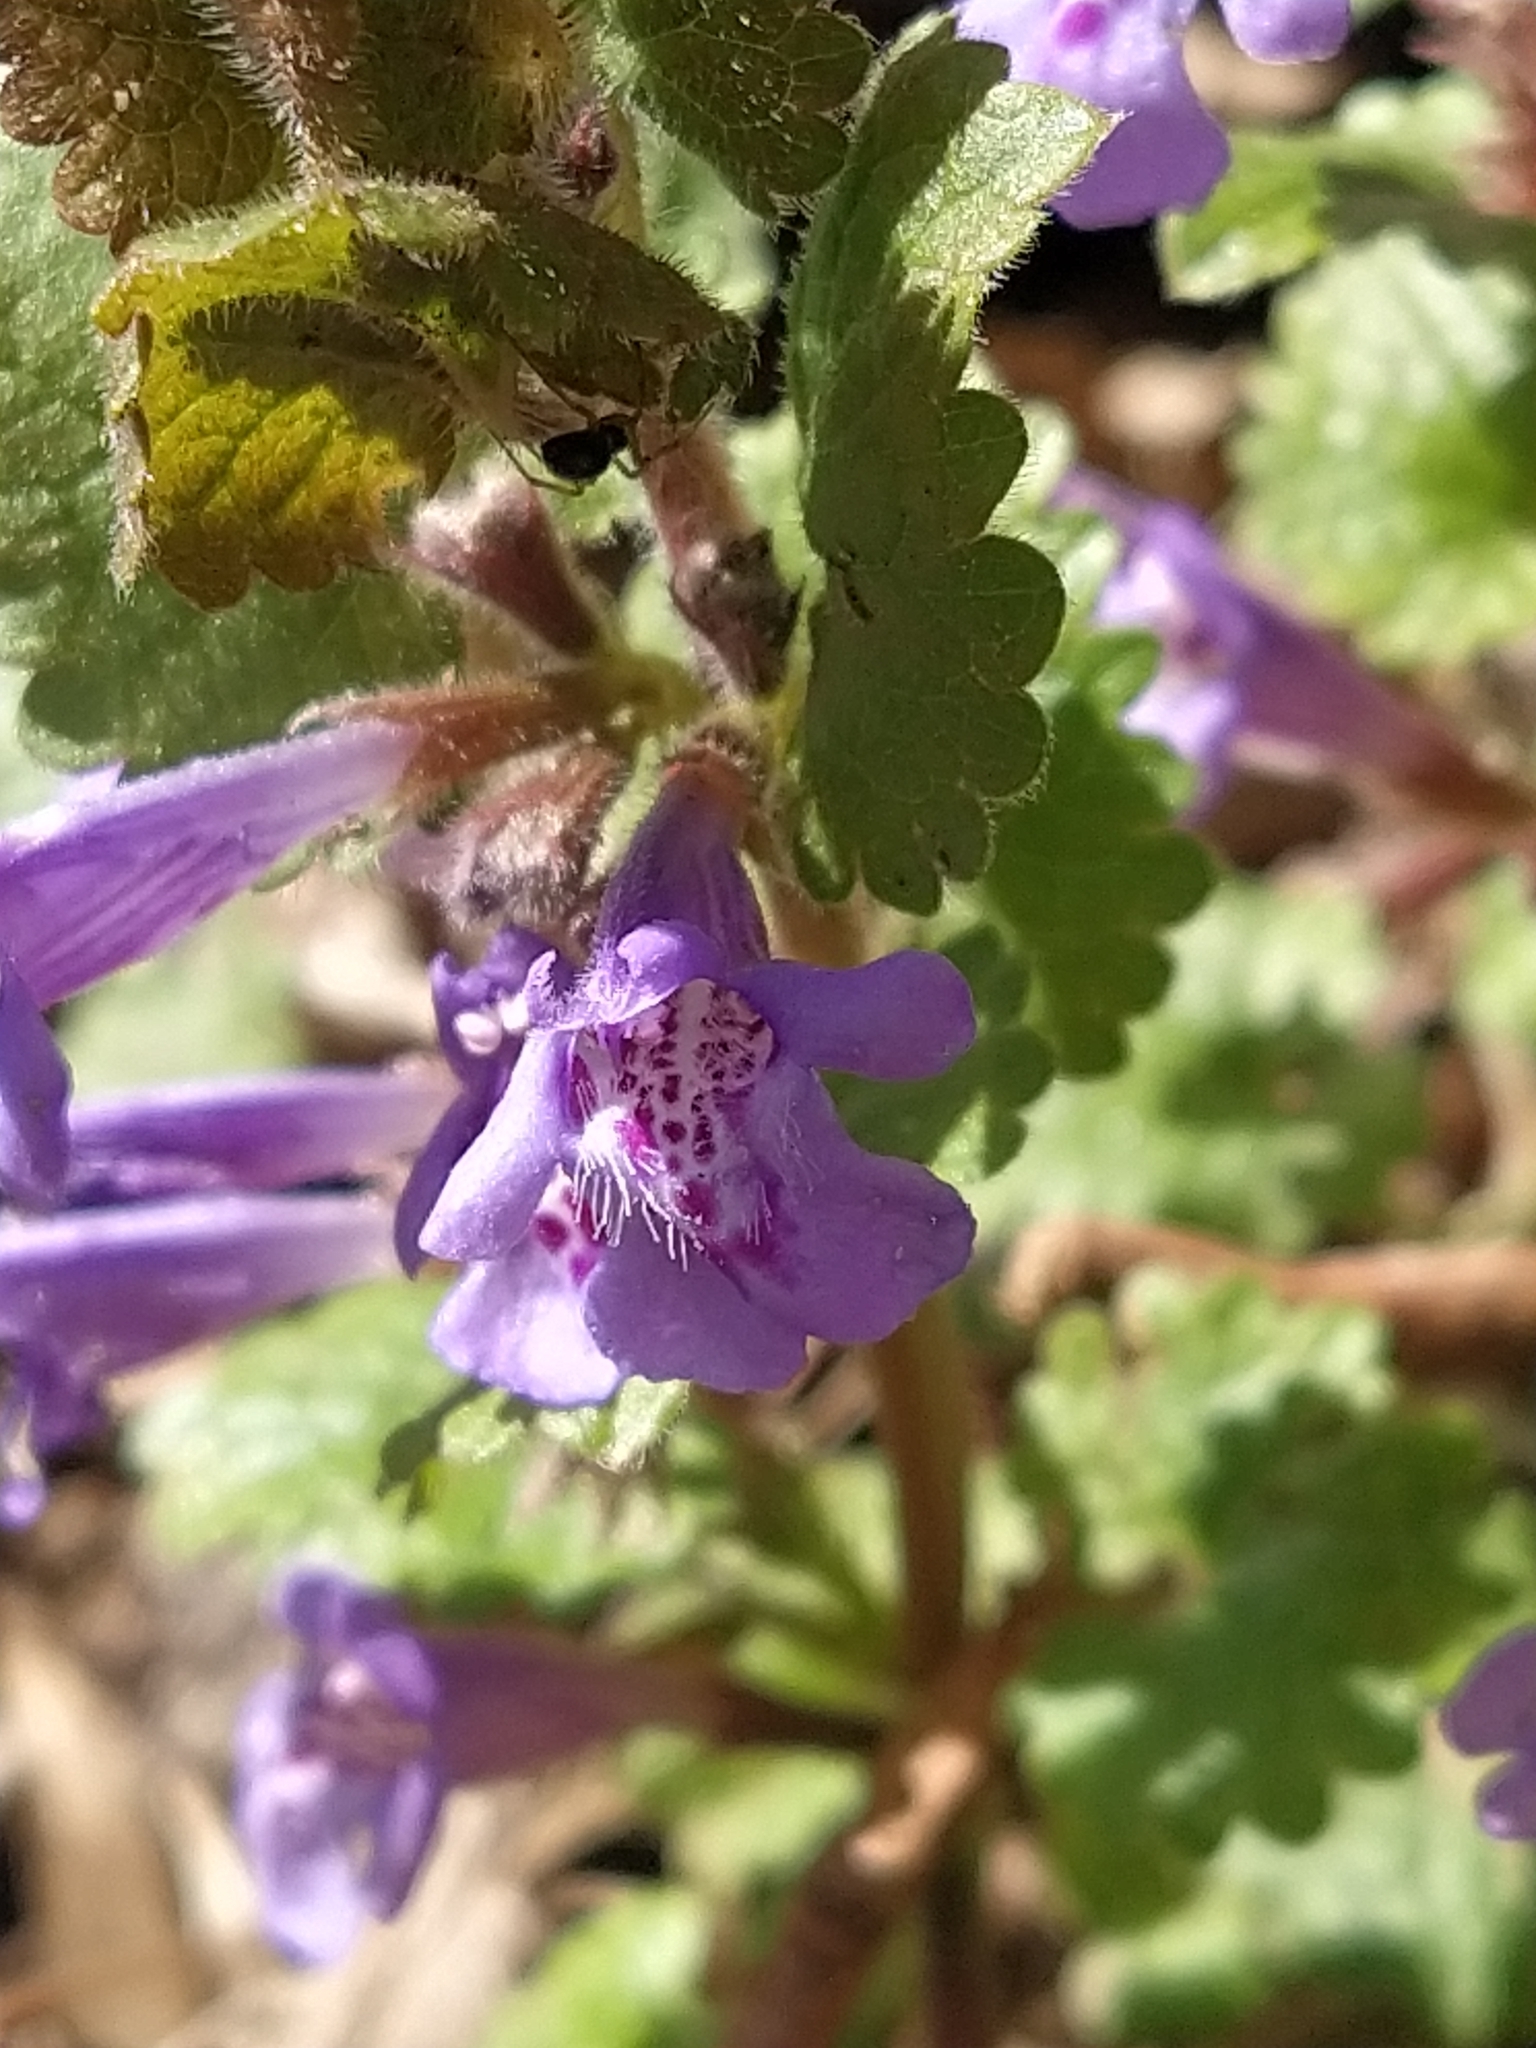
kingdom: Plantae
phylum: Tracheophyta
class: Magnoliopsida
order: Lamiales
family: Lamiaceae
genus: Glechoma
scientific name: Glechoma hederacea
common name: Ground ivy
